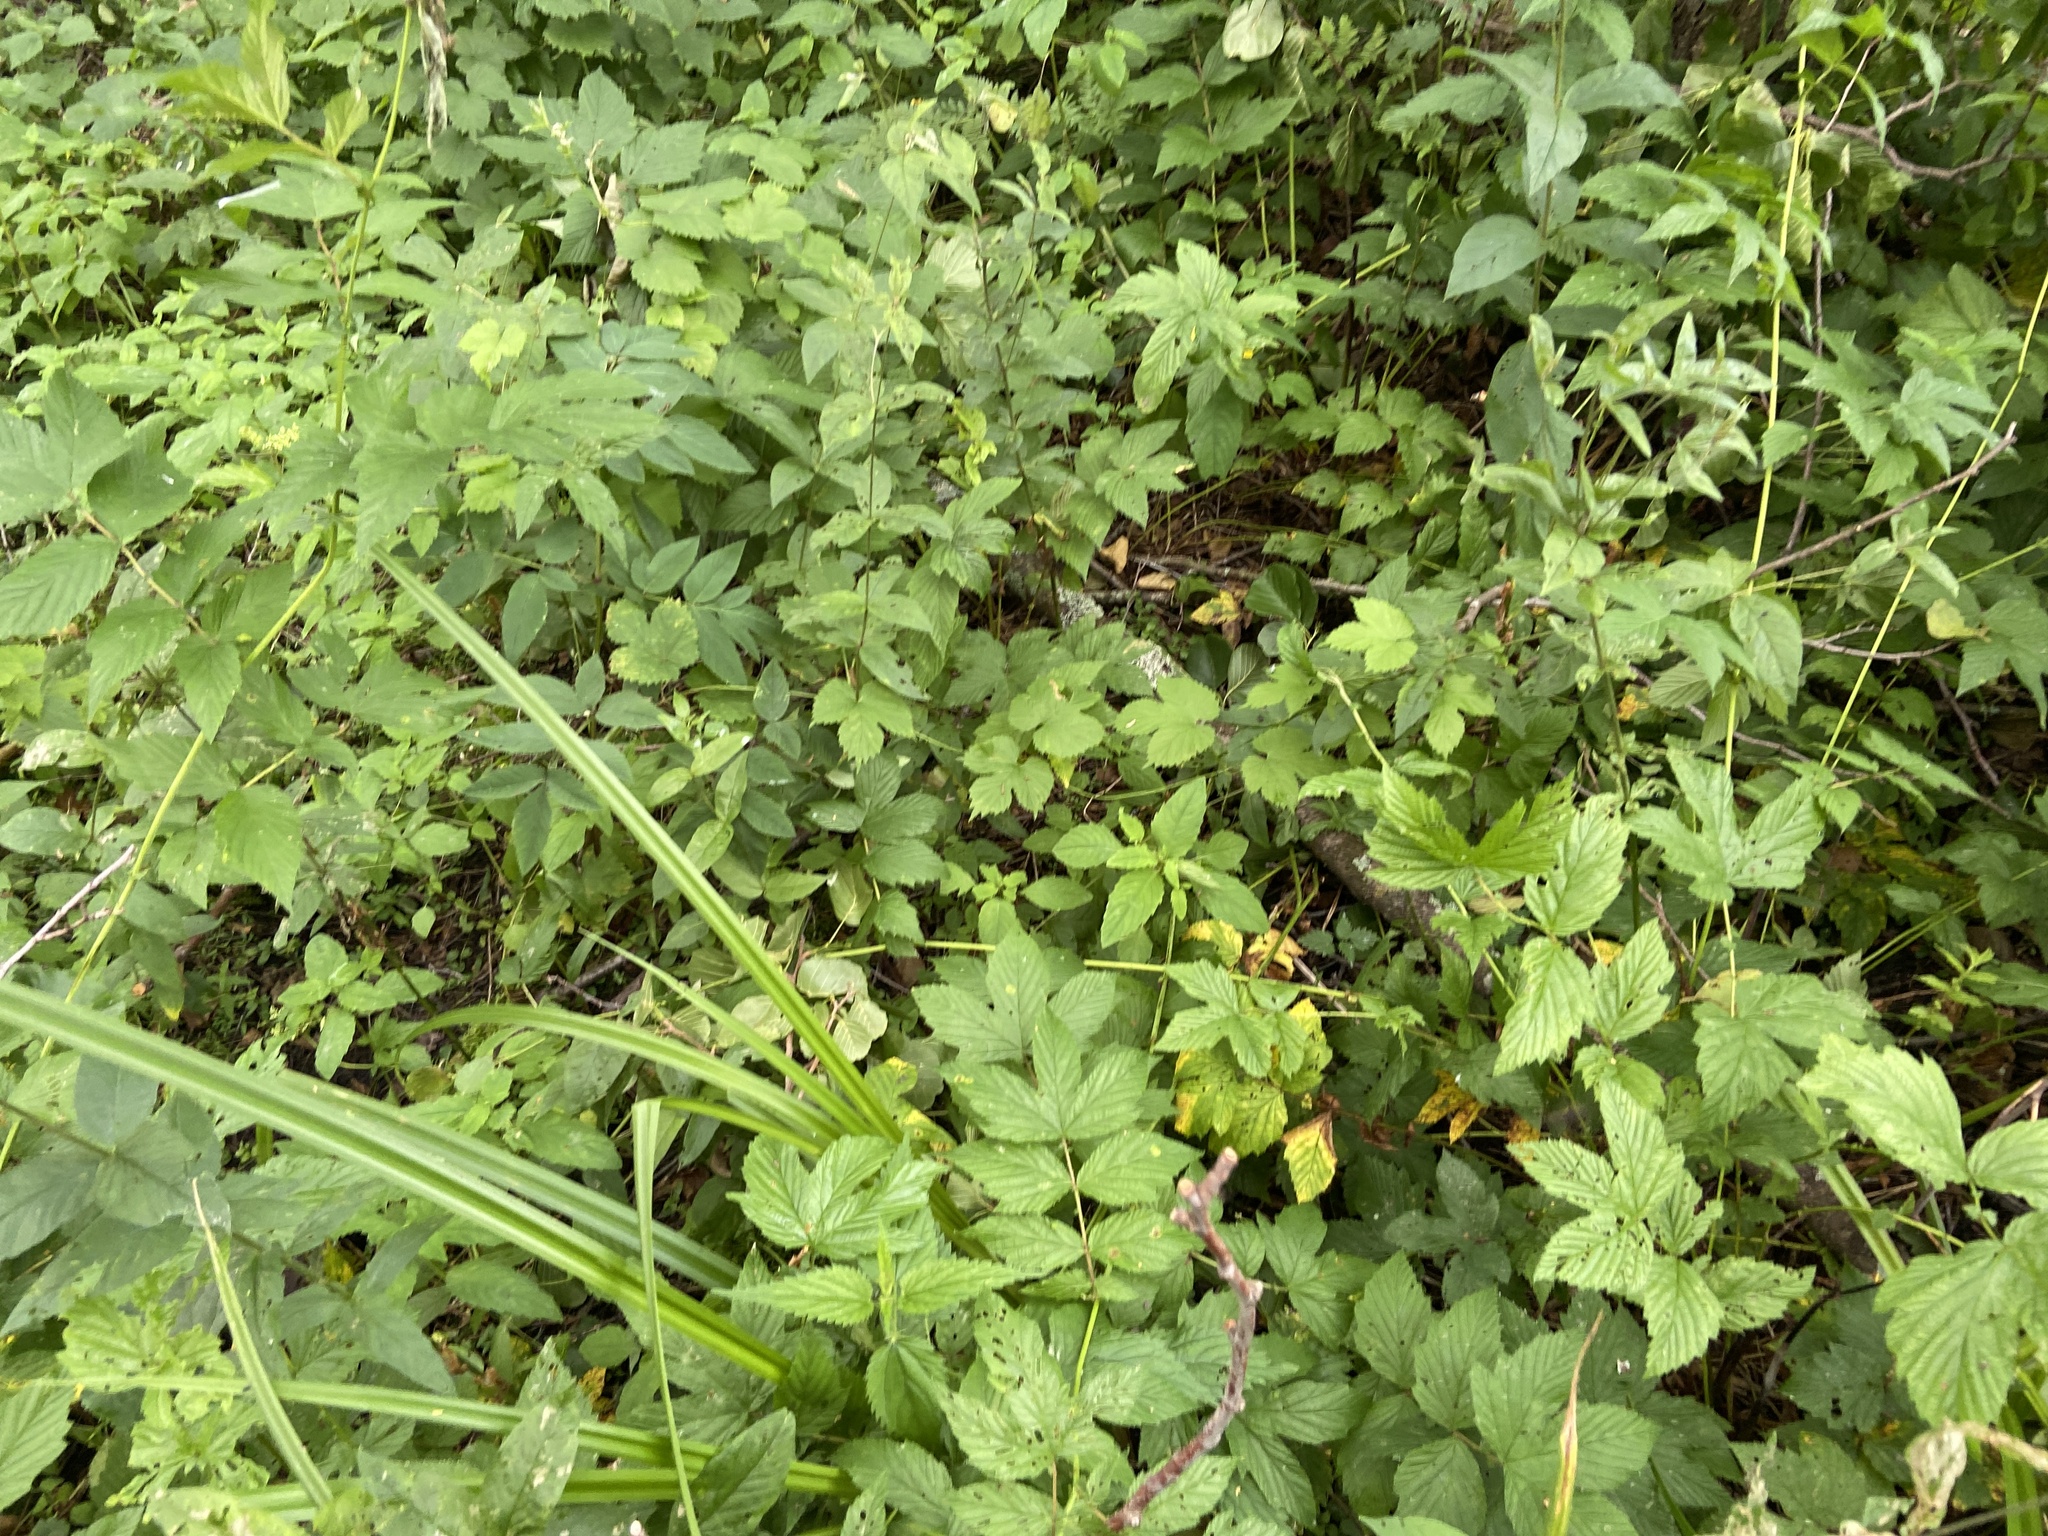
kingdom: Plantae
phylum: Tracheophyta
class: Magnoliopsida
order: Rosales
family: Urticaceae
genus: Urtica
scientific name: Urtica dioica
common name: Common nettle
